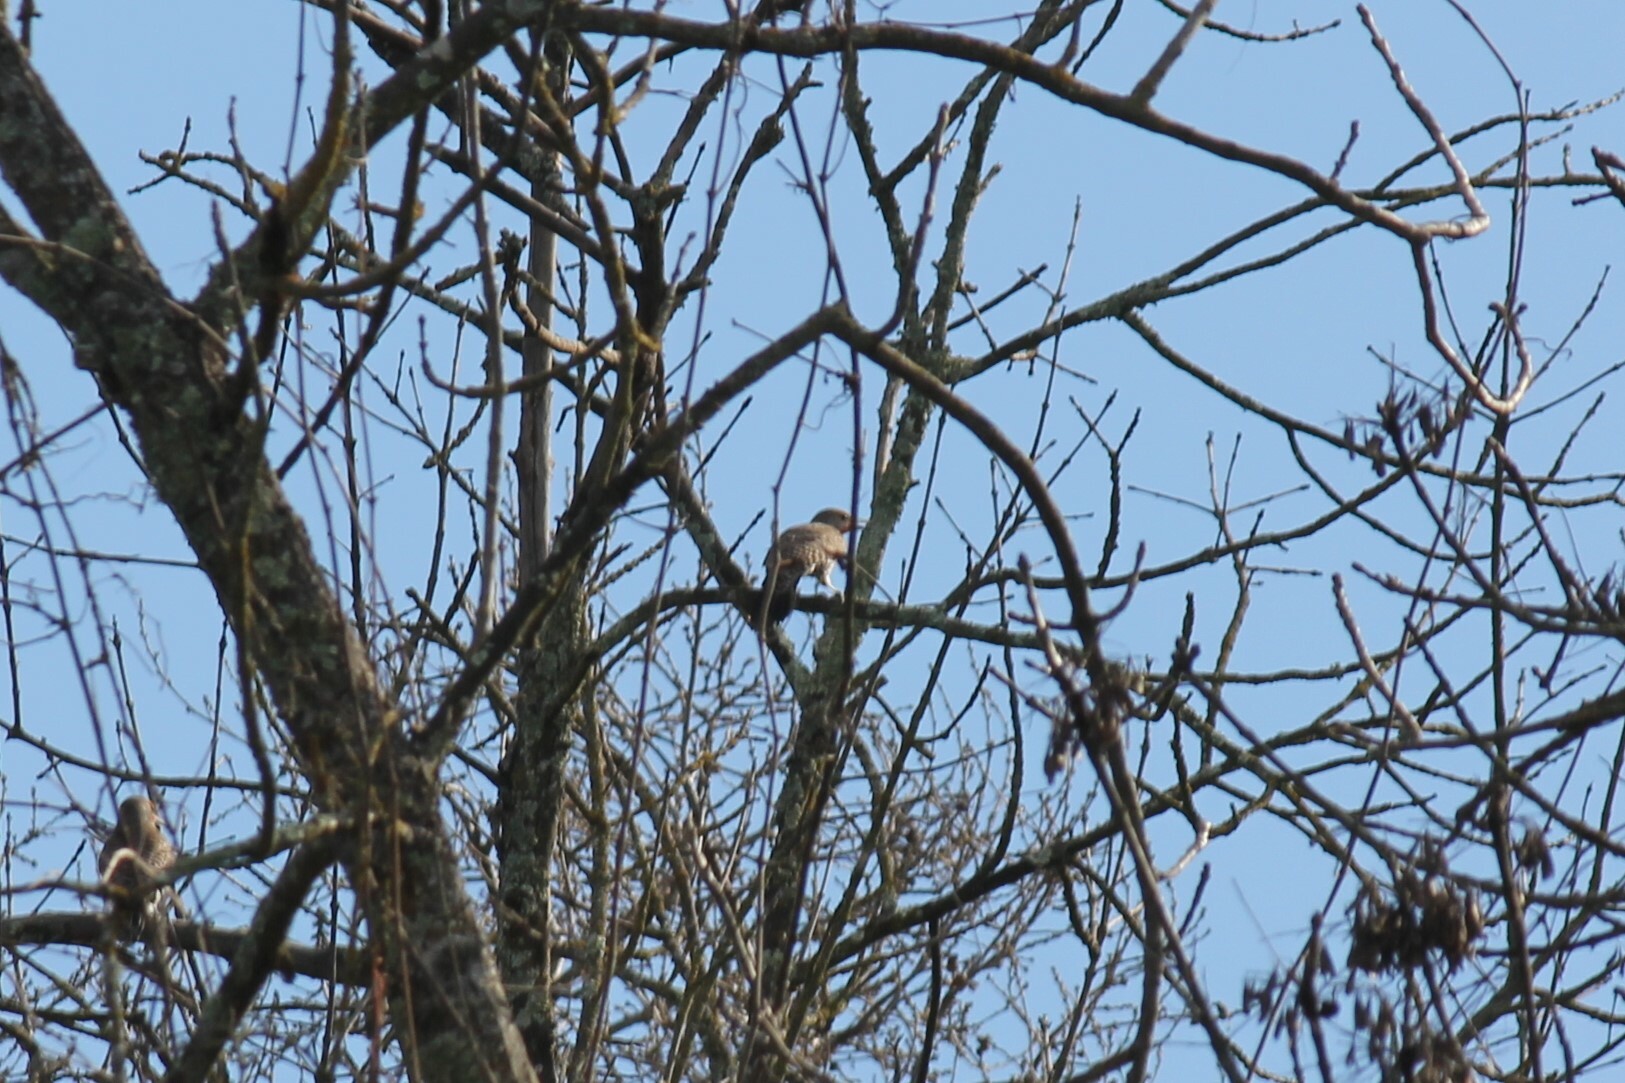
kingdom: Animalia
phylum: Chordata
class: Aves
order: Piciformes
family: Picidae
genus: Colaptes
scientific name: Colaptes auratus
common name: Northern flicker
